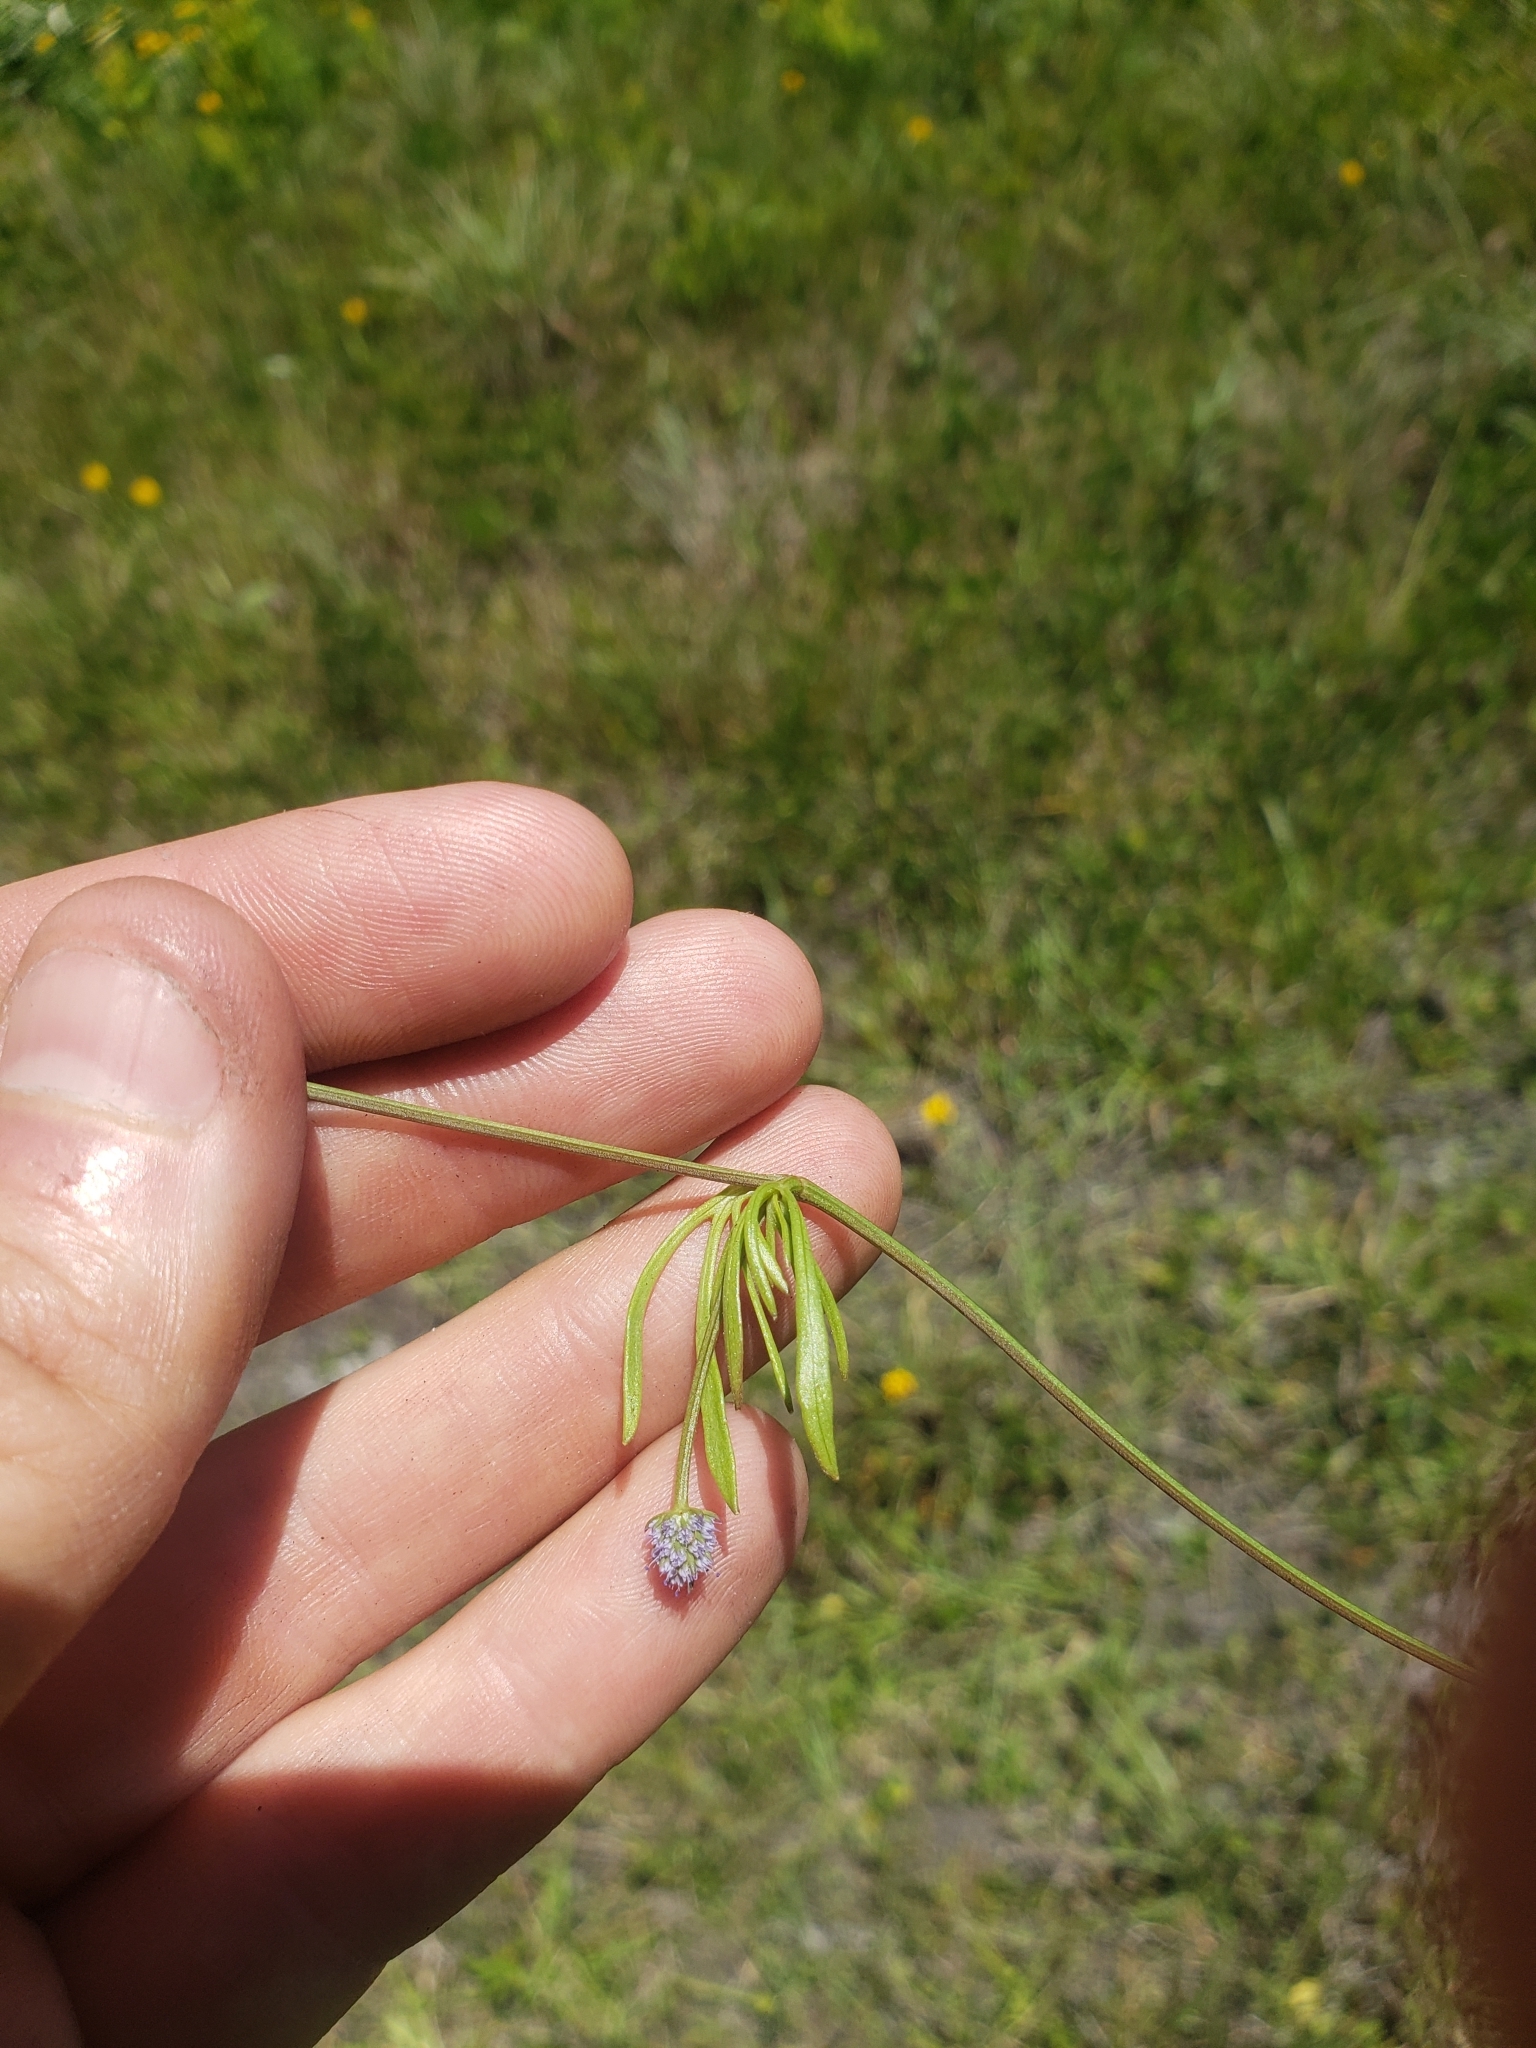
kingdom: Plantae
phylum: Tracheophyta
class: Magnoliopsida
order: Apiales
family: Apiaceae
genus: Eryngium
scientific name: Eryngium baldwinii
